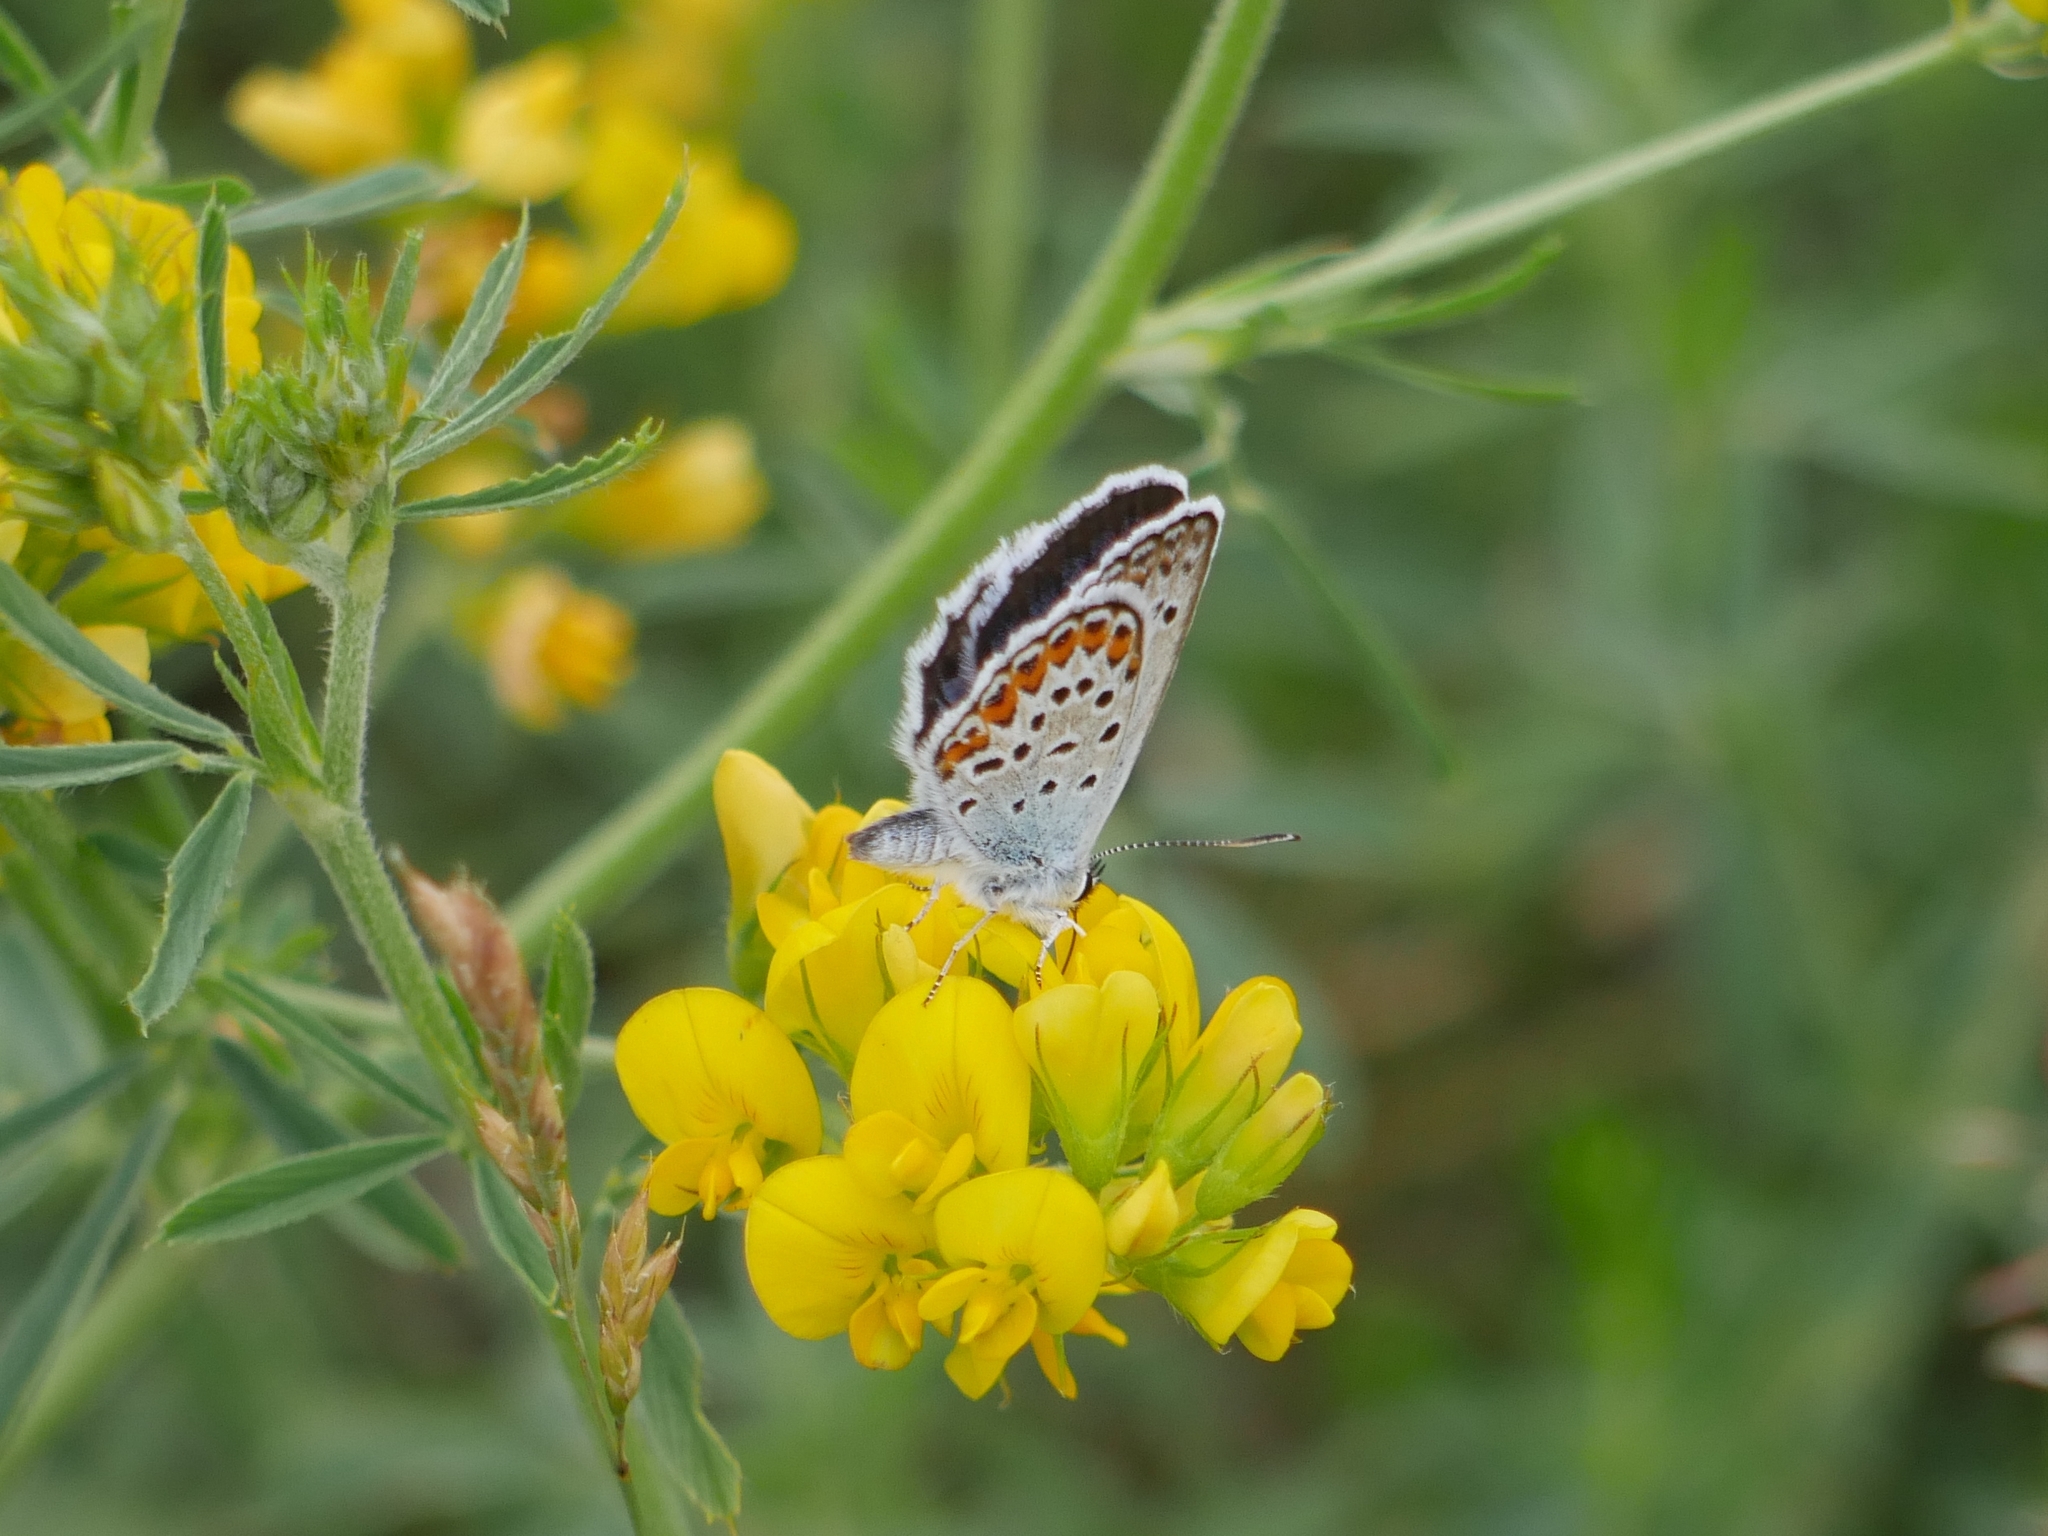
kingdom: Animalia
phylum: Arthropoda
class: Insecta
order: Lepidoptera
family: Lycaenidae
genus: Plebejus
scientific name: Plebejus argus
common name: Silver-studded blue
